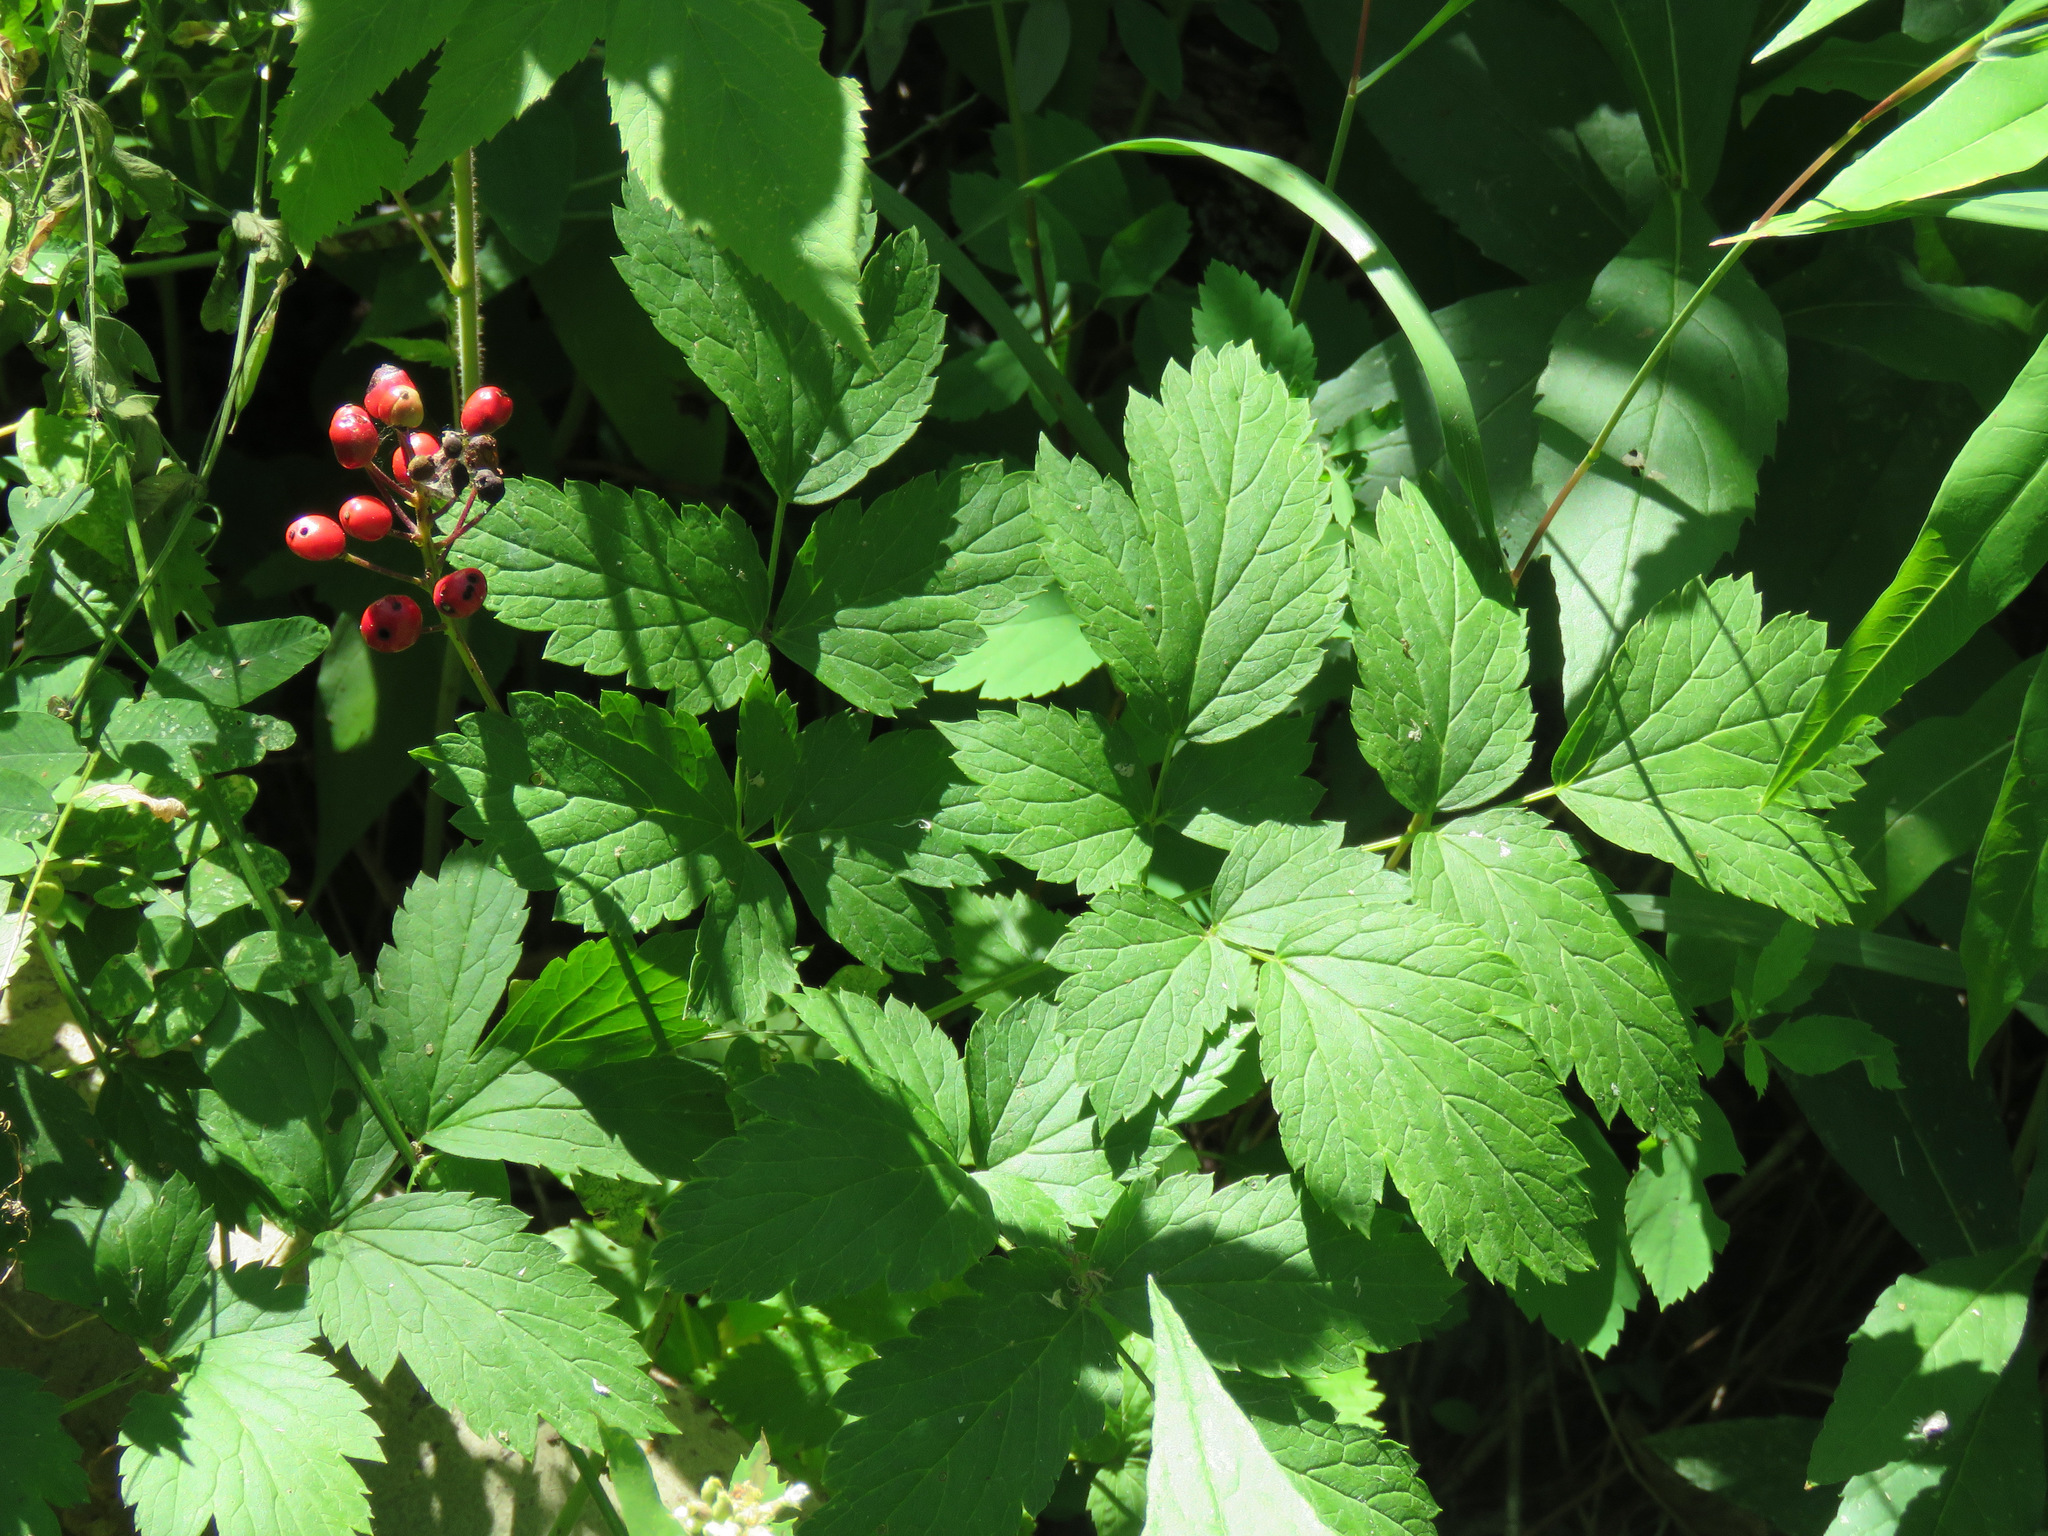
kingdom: Plantae
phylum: Tracheophyta
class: Magnoliopsida
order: Ranunculales
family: Ranunculaceae
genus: Actaea
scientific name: Actaea rubra
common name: Red baneberry
